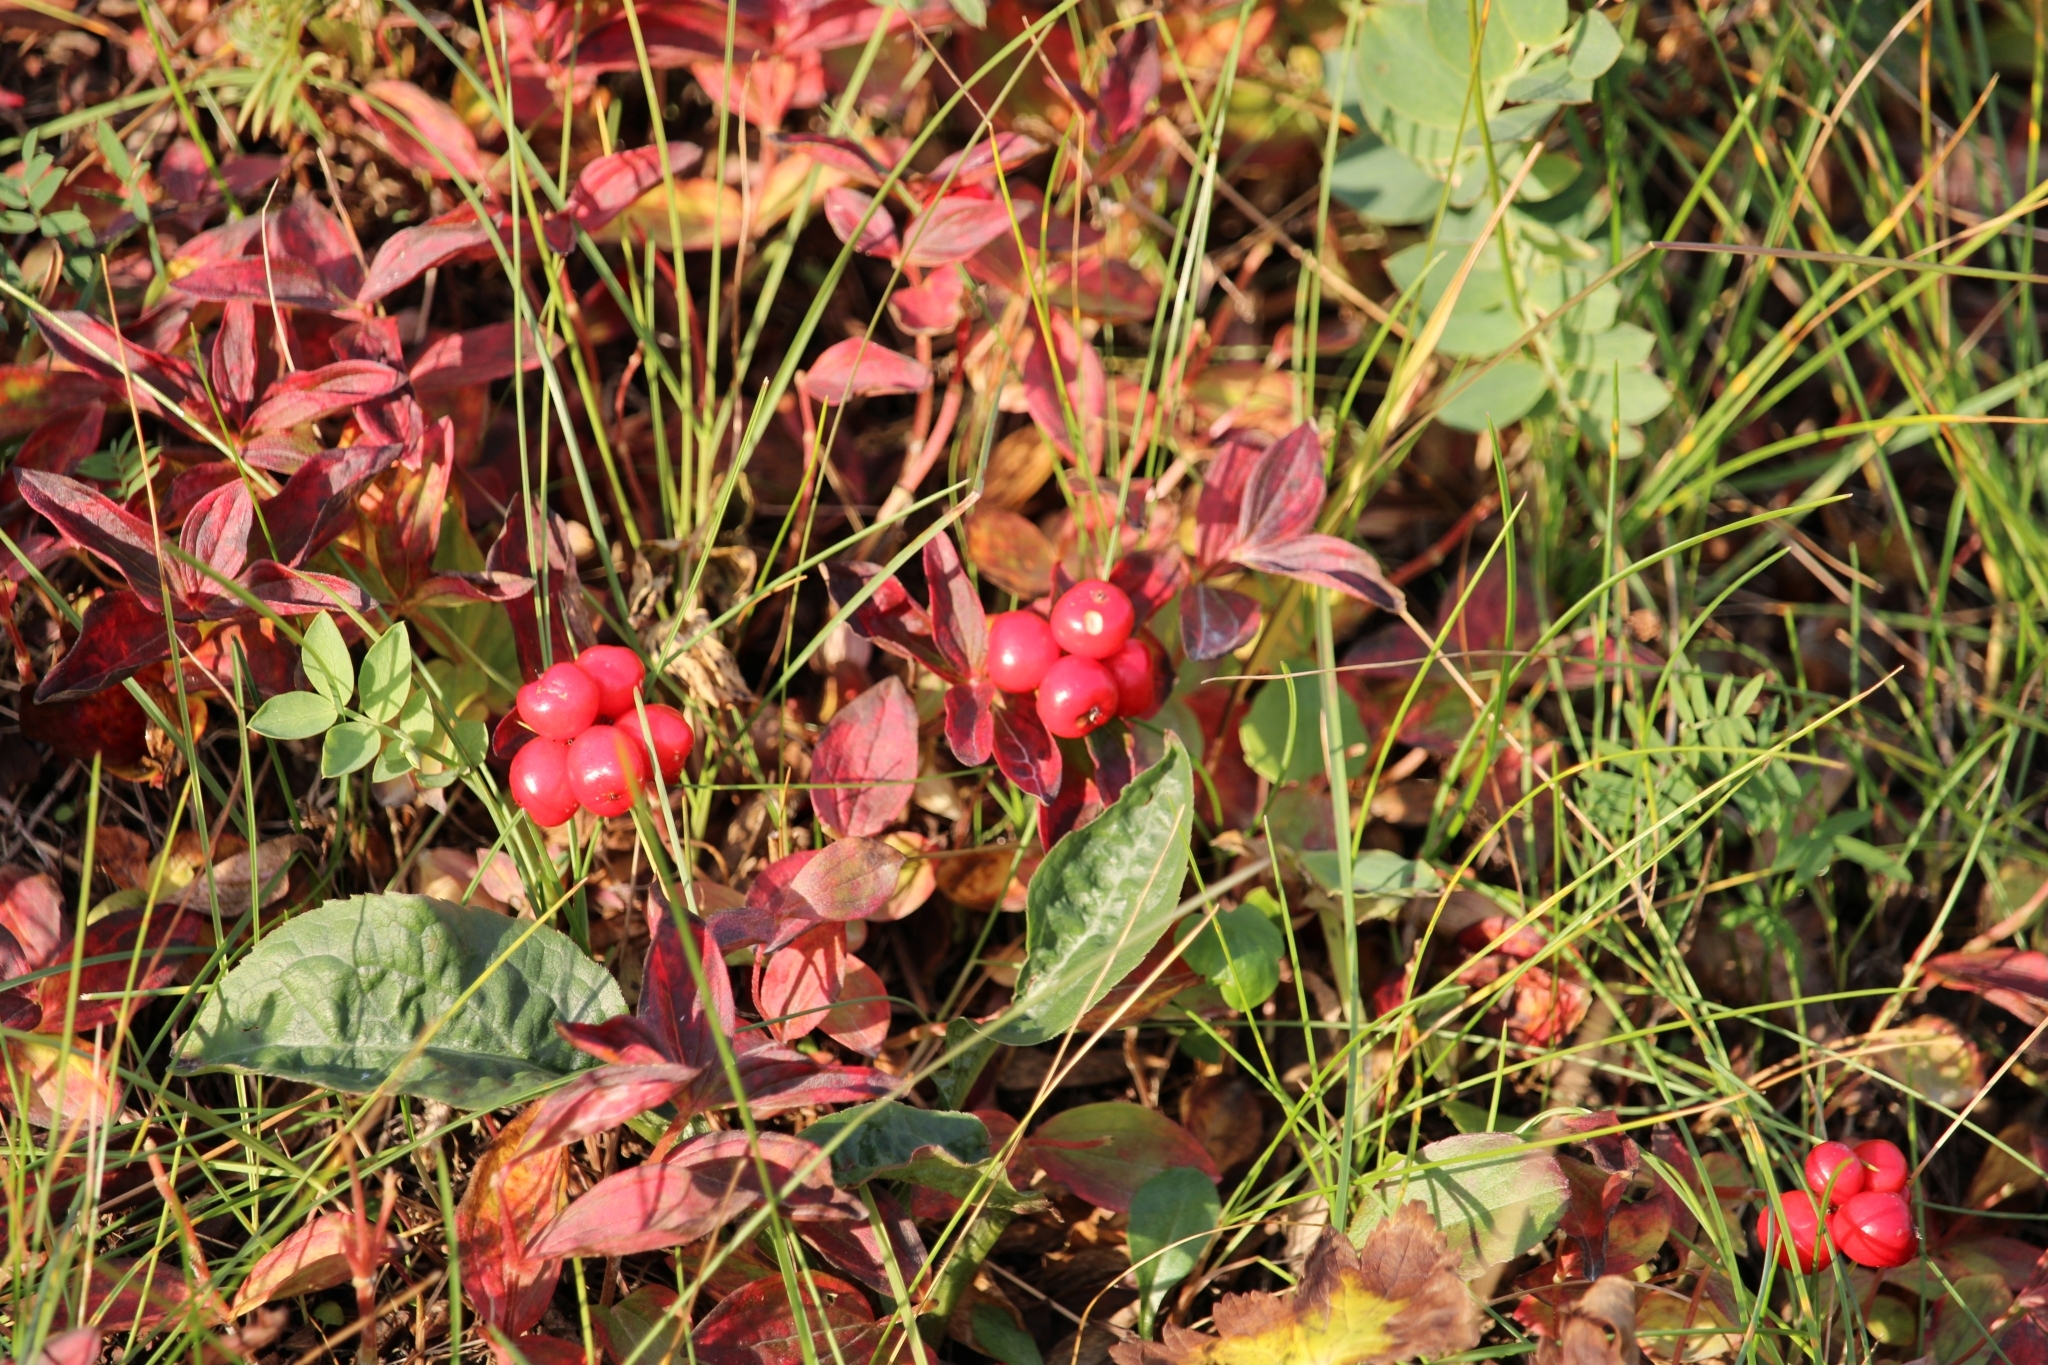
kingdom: Plantae
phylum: Tracheophyta
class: Magnoliopsida
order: Cornales
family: Cornaceae
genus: Cornus
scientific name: Cornus suecica
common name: Dwarf cornel
